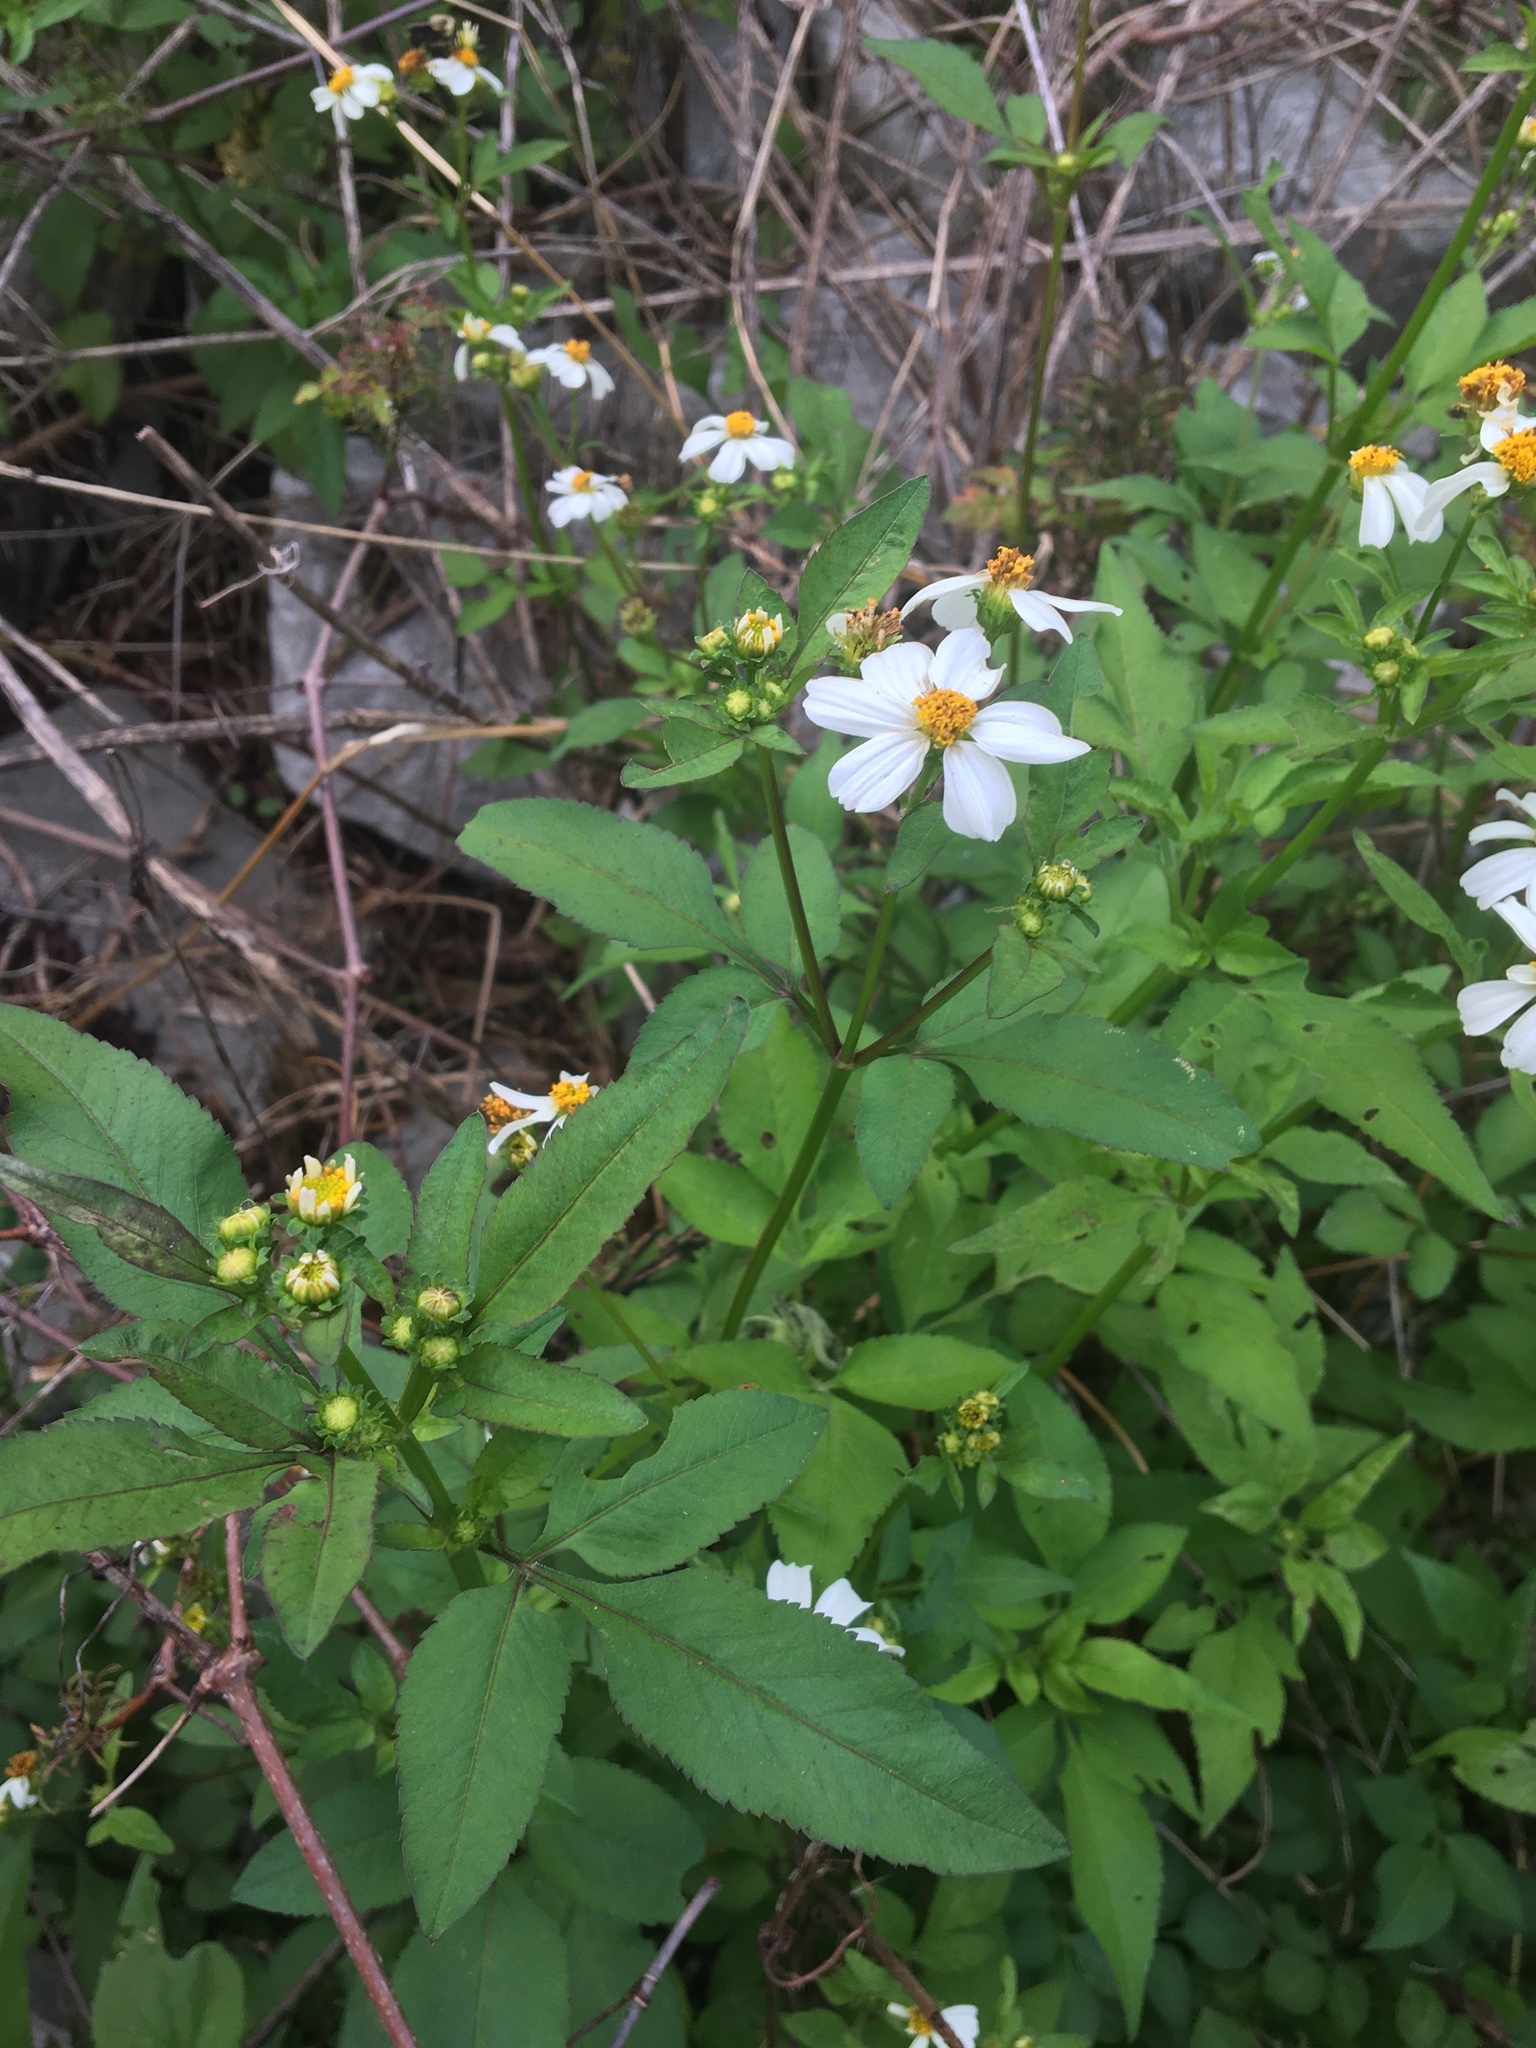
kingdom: Plantae
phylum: Tracheophyta
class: Magnoliopsida
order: Asterales
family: Asteraceae
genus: Bidens
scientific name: Bidens alba
